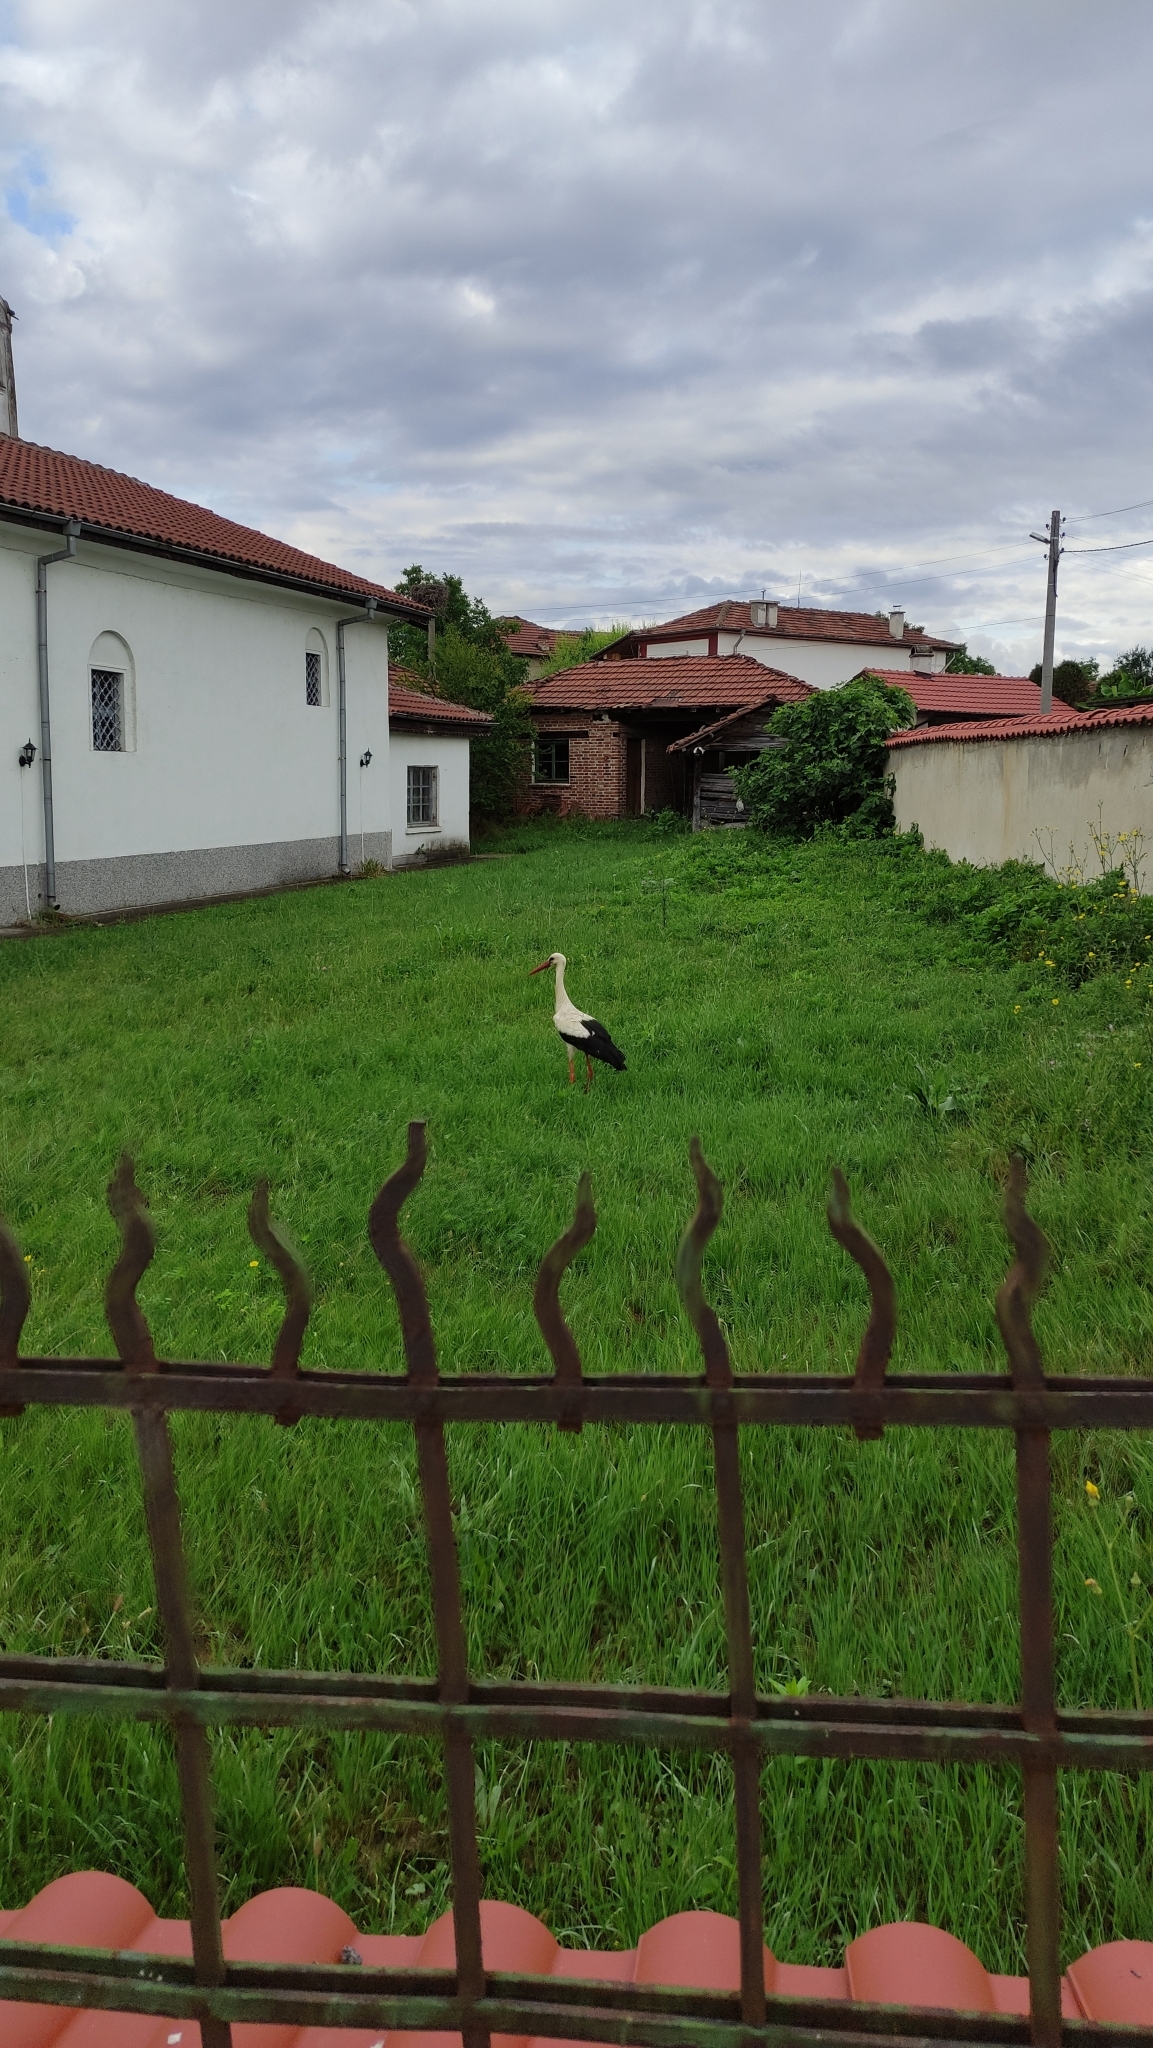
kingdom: Animalia
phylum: Chordata
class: Aves
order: Ciconiiformes
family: Ciconiidae
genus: Ciconia
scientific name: Ciconia ciconia
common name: White stork
